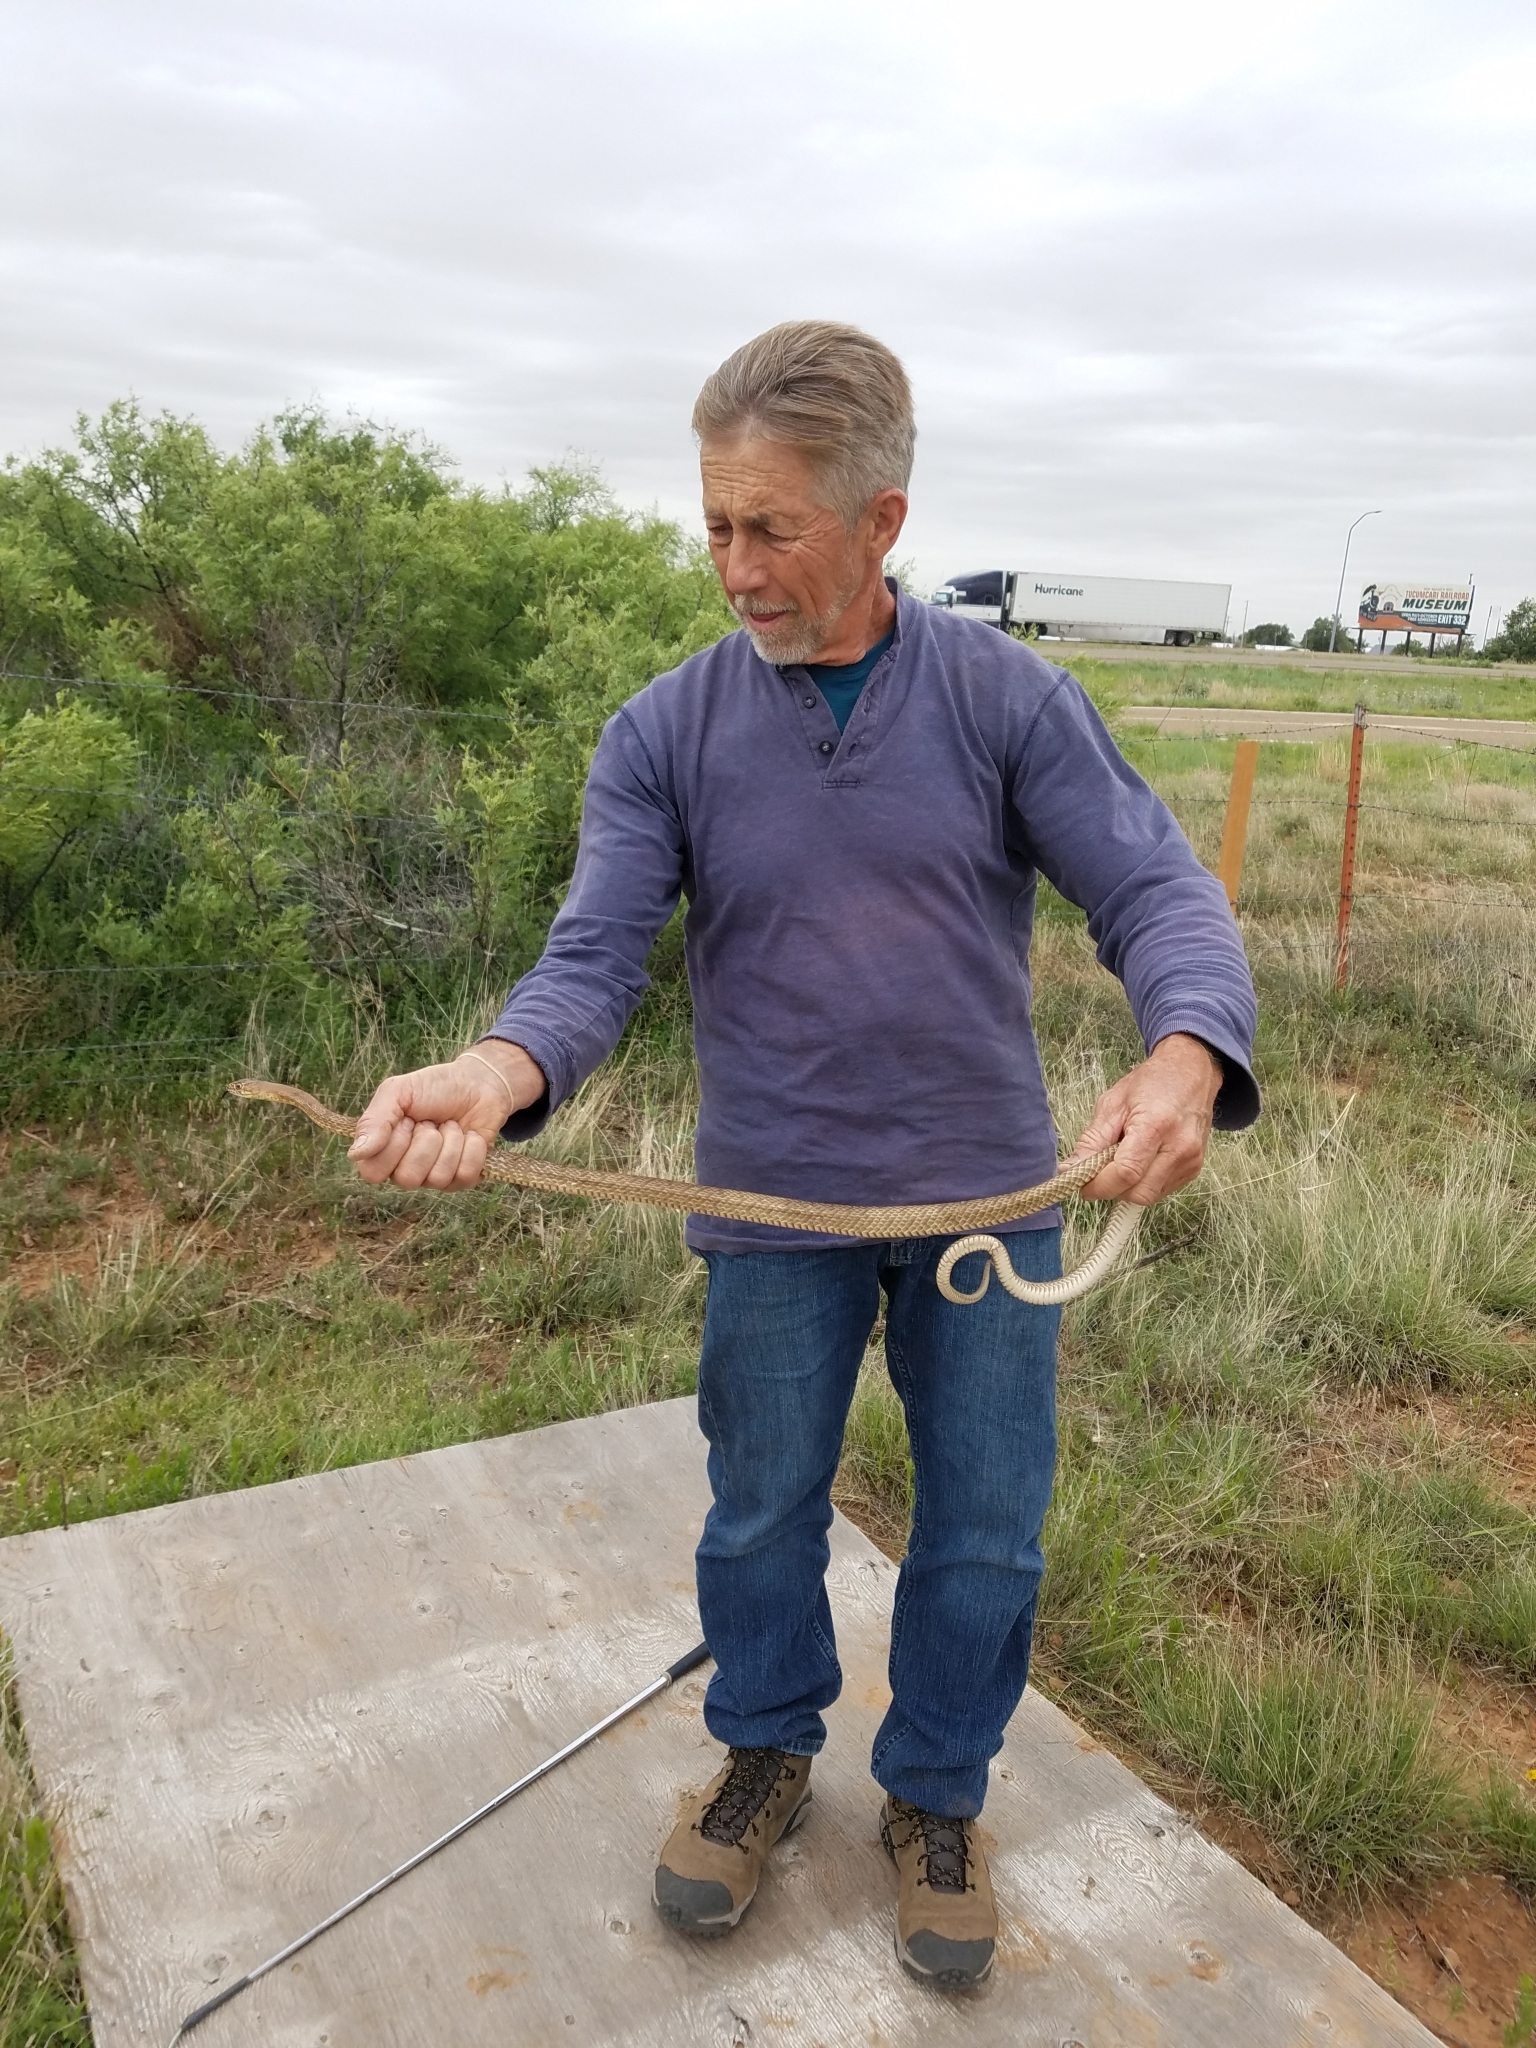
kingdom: Animalia
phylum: Chordata
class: Squamata
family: Colubridae
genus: Masticophis
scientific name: Masticophis flagellum
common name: Coachwhip
